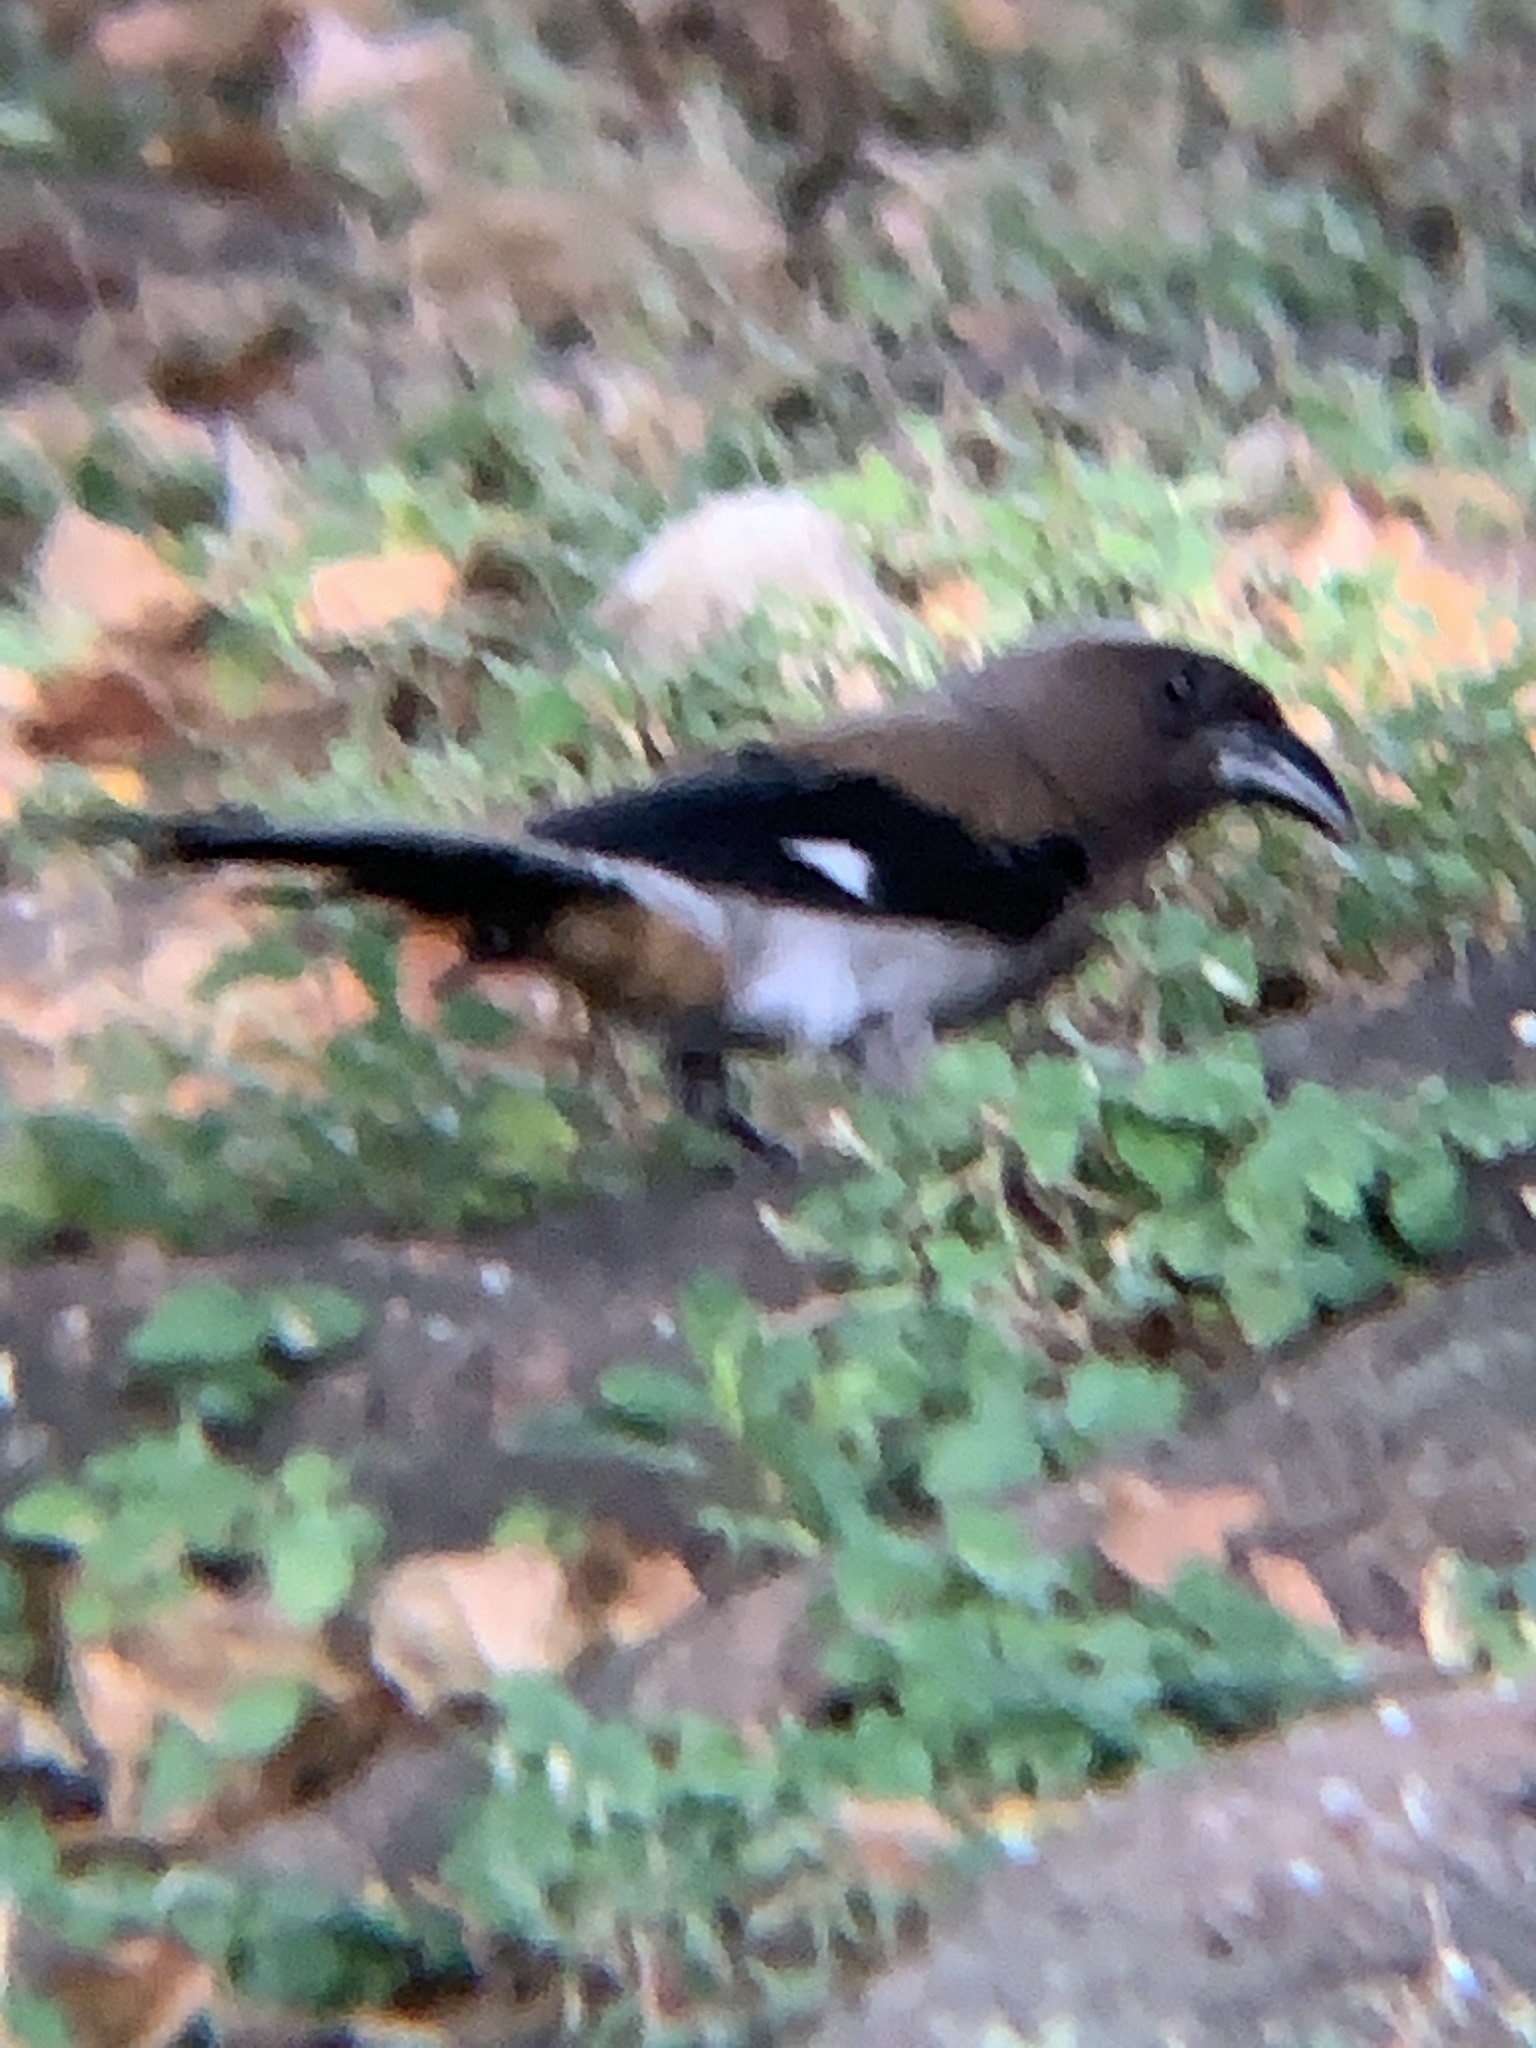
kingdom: Animalia
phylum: Chordata
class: Aves
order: Passeriformes
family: Corvidae
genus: Dendrocitta
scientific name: Dendrocitta formosae
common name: Grey treepie
